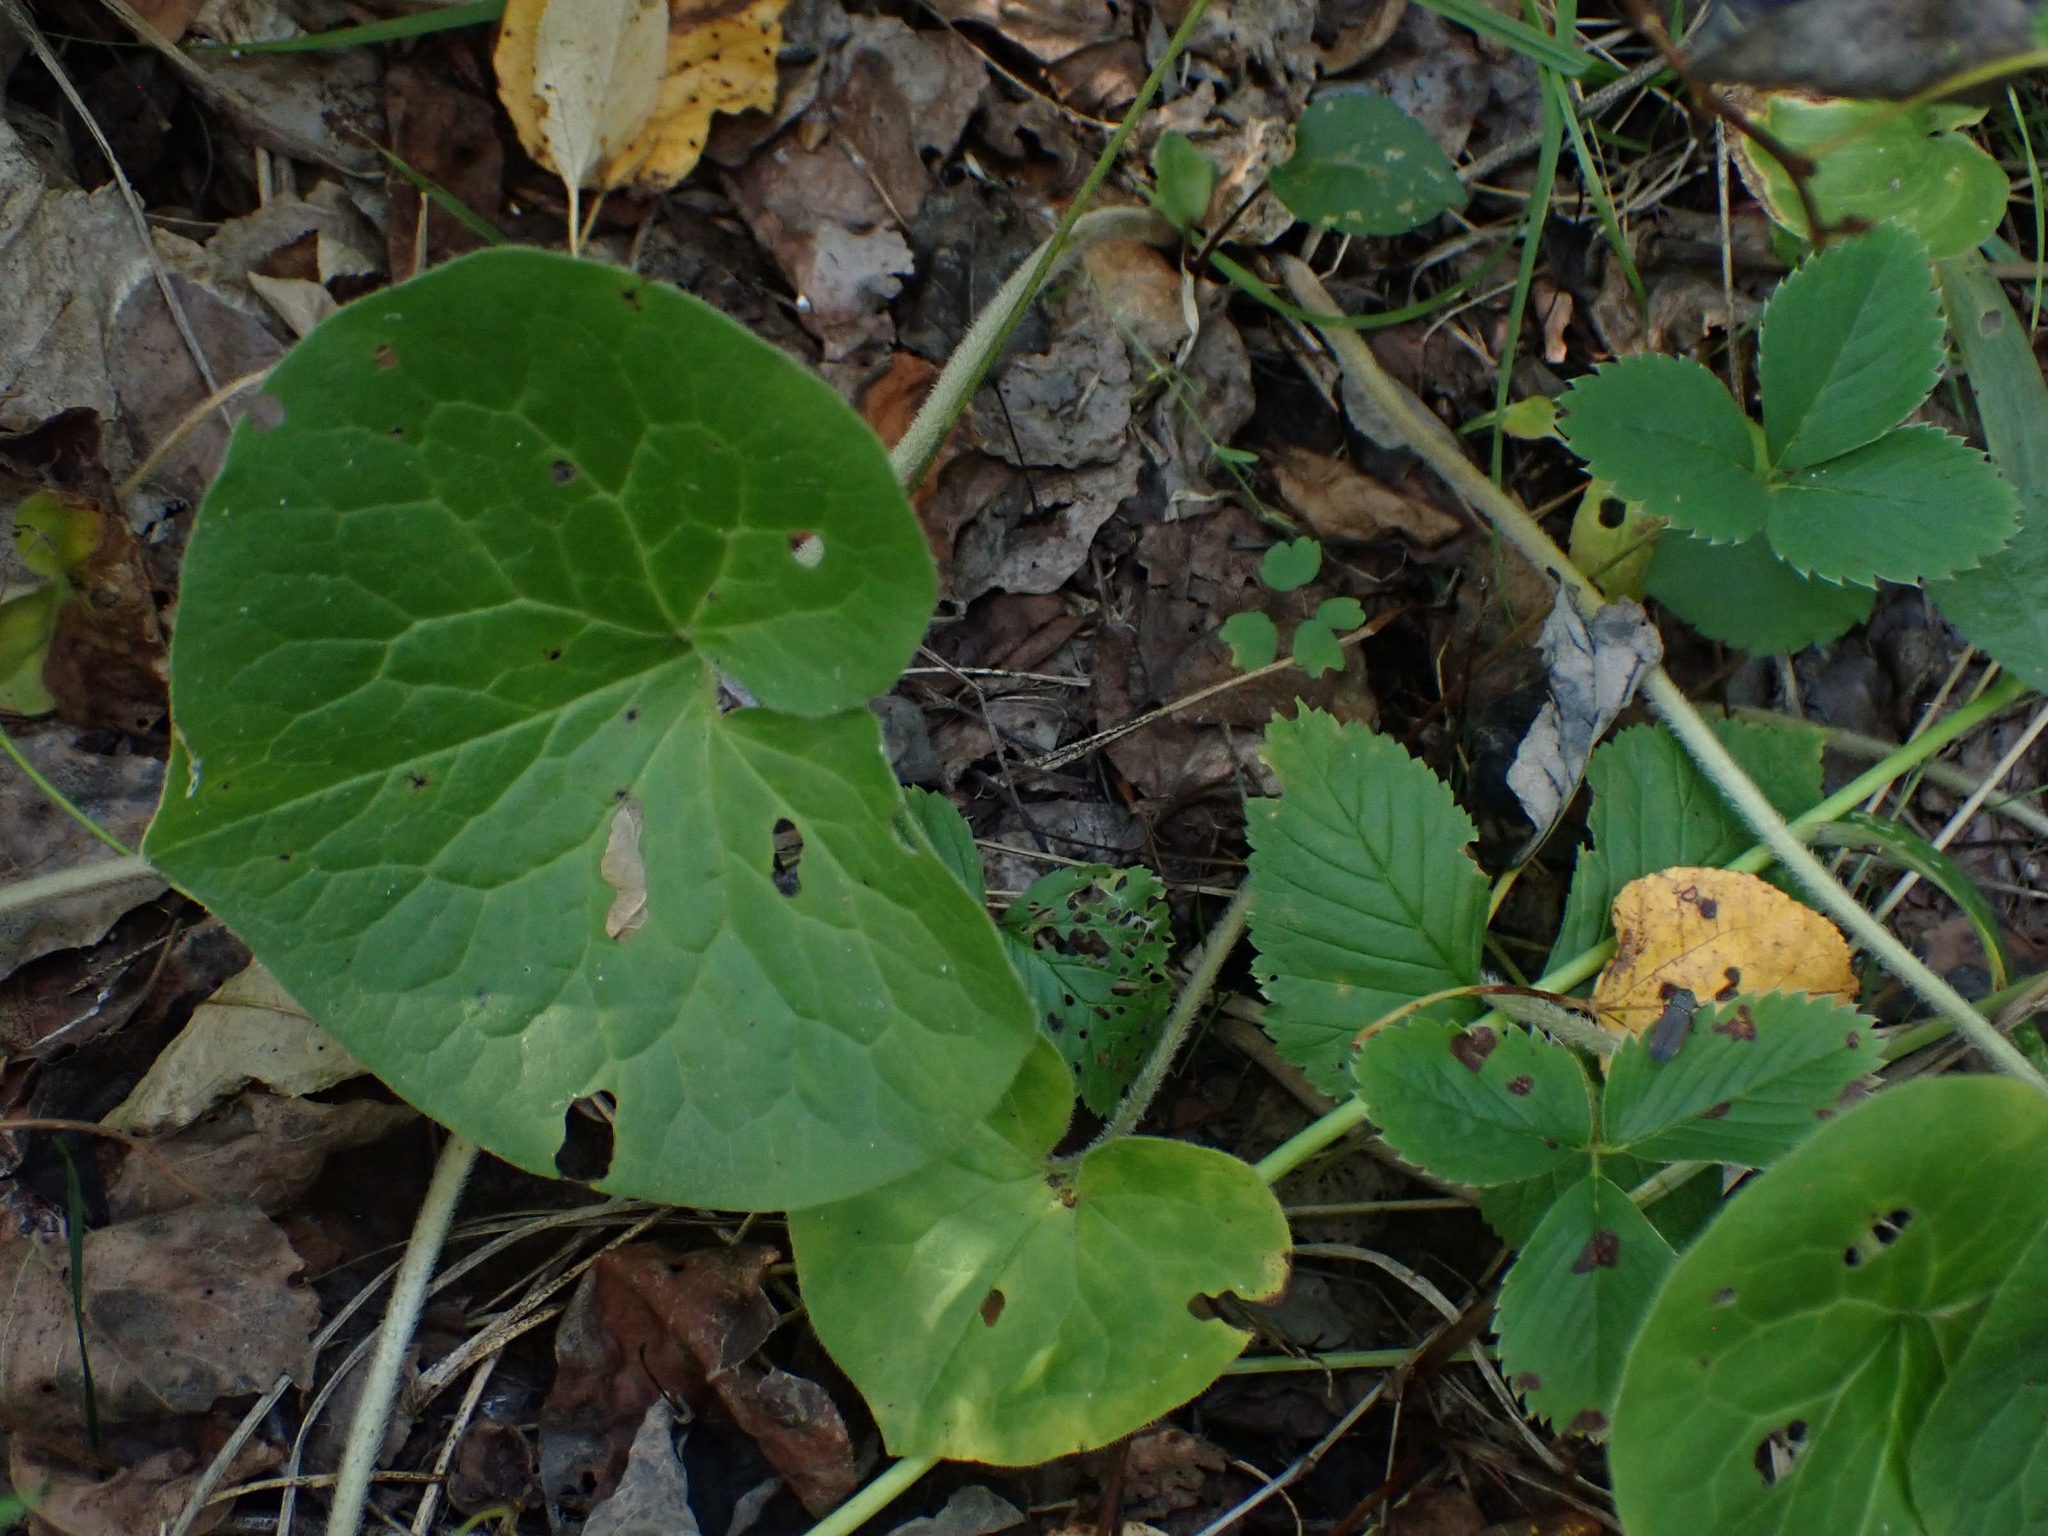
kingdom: Plantae
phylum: Tracheophyta
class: Magnoliopsida
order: Piperales
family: Aristolochiaceae
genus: Asarum
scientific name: Asarum canadense
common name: Wild ginger
